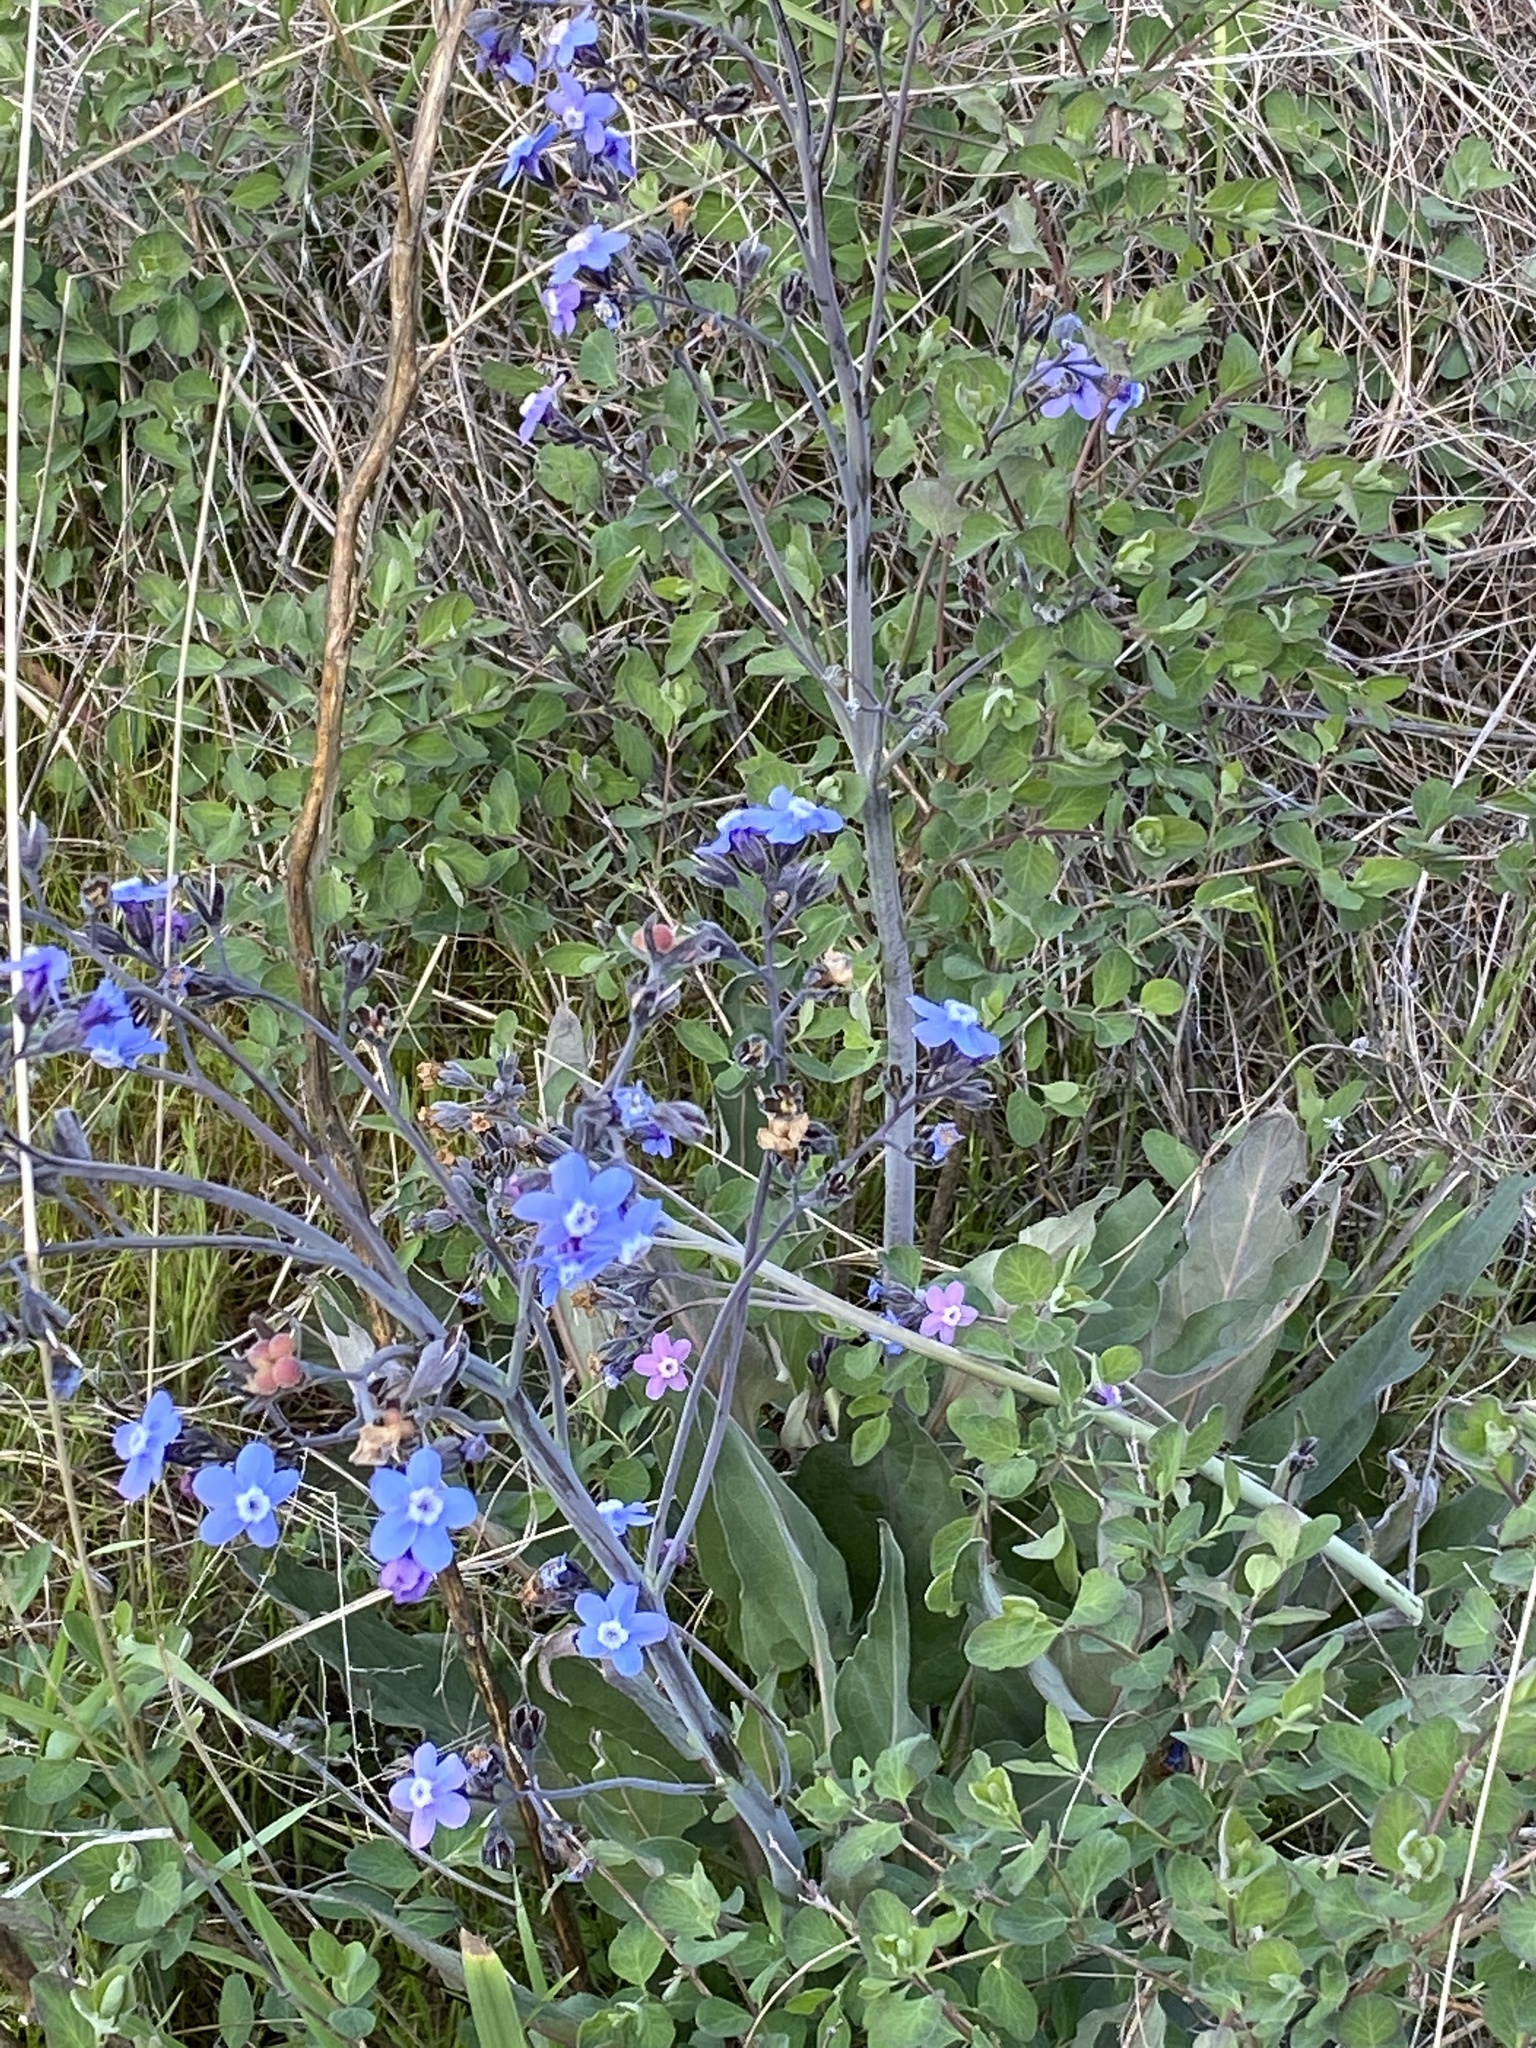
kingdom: Plantae
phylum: Tracheophyta
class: Magnoliopsida
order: Boraginales
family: Boraginaceae
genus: Adelinia
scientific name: Adelinia grande
